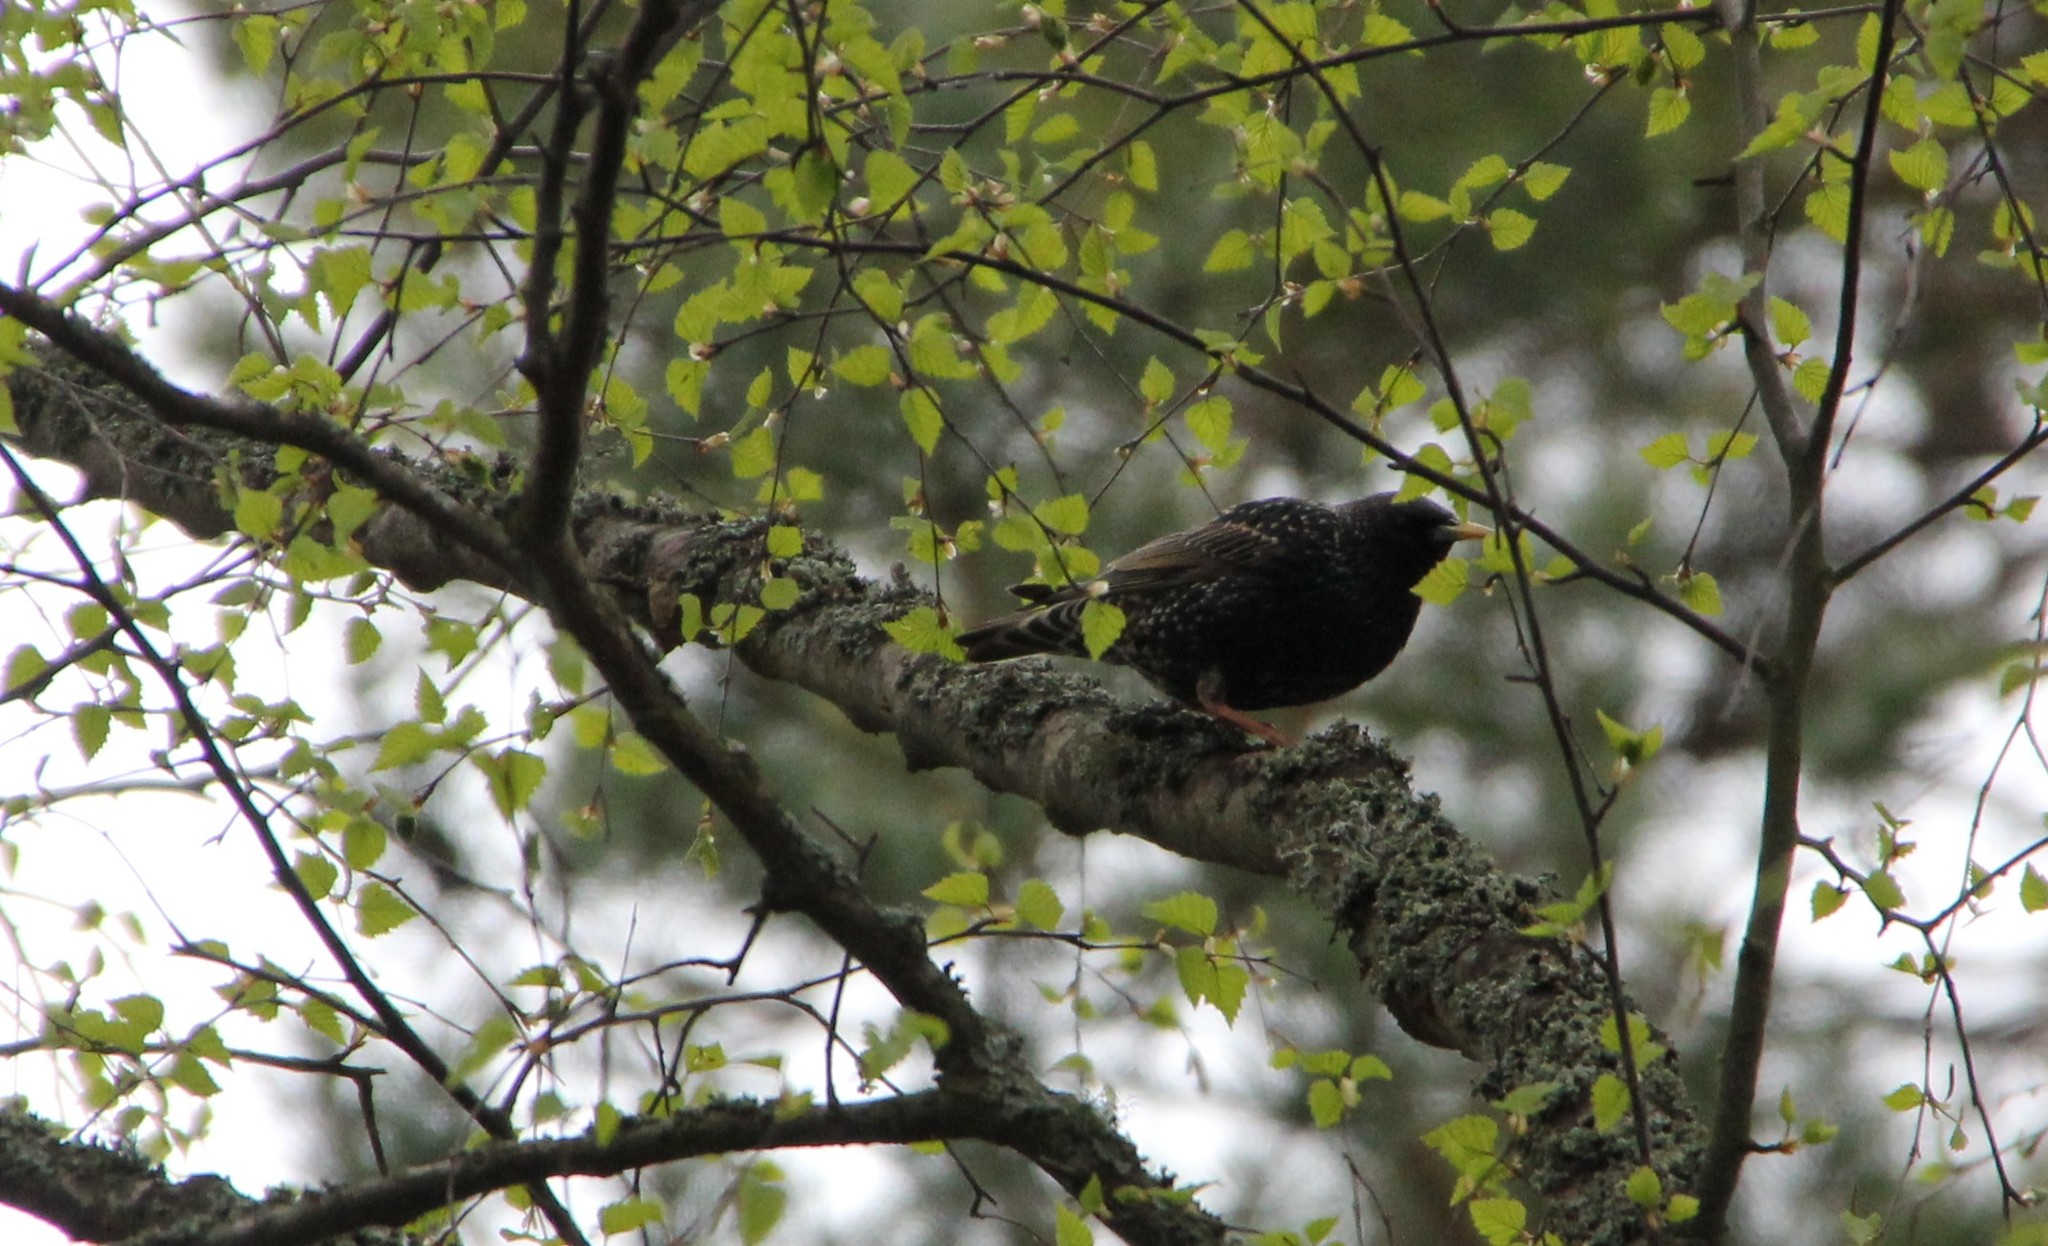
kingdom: Animalia
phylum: Chordata
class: Aves
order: Passeriformes
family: Sturnidae
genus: Sturnus
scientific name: Sturnus vulgaris
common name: Common starling
